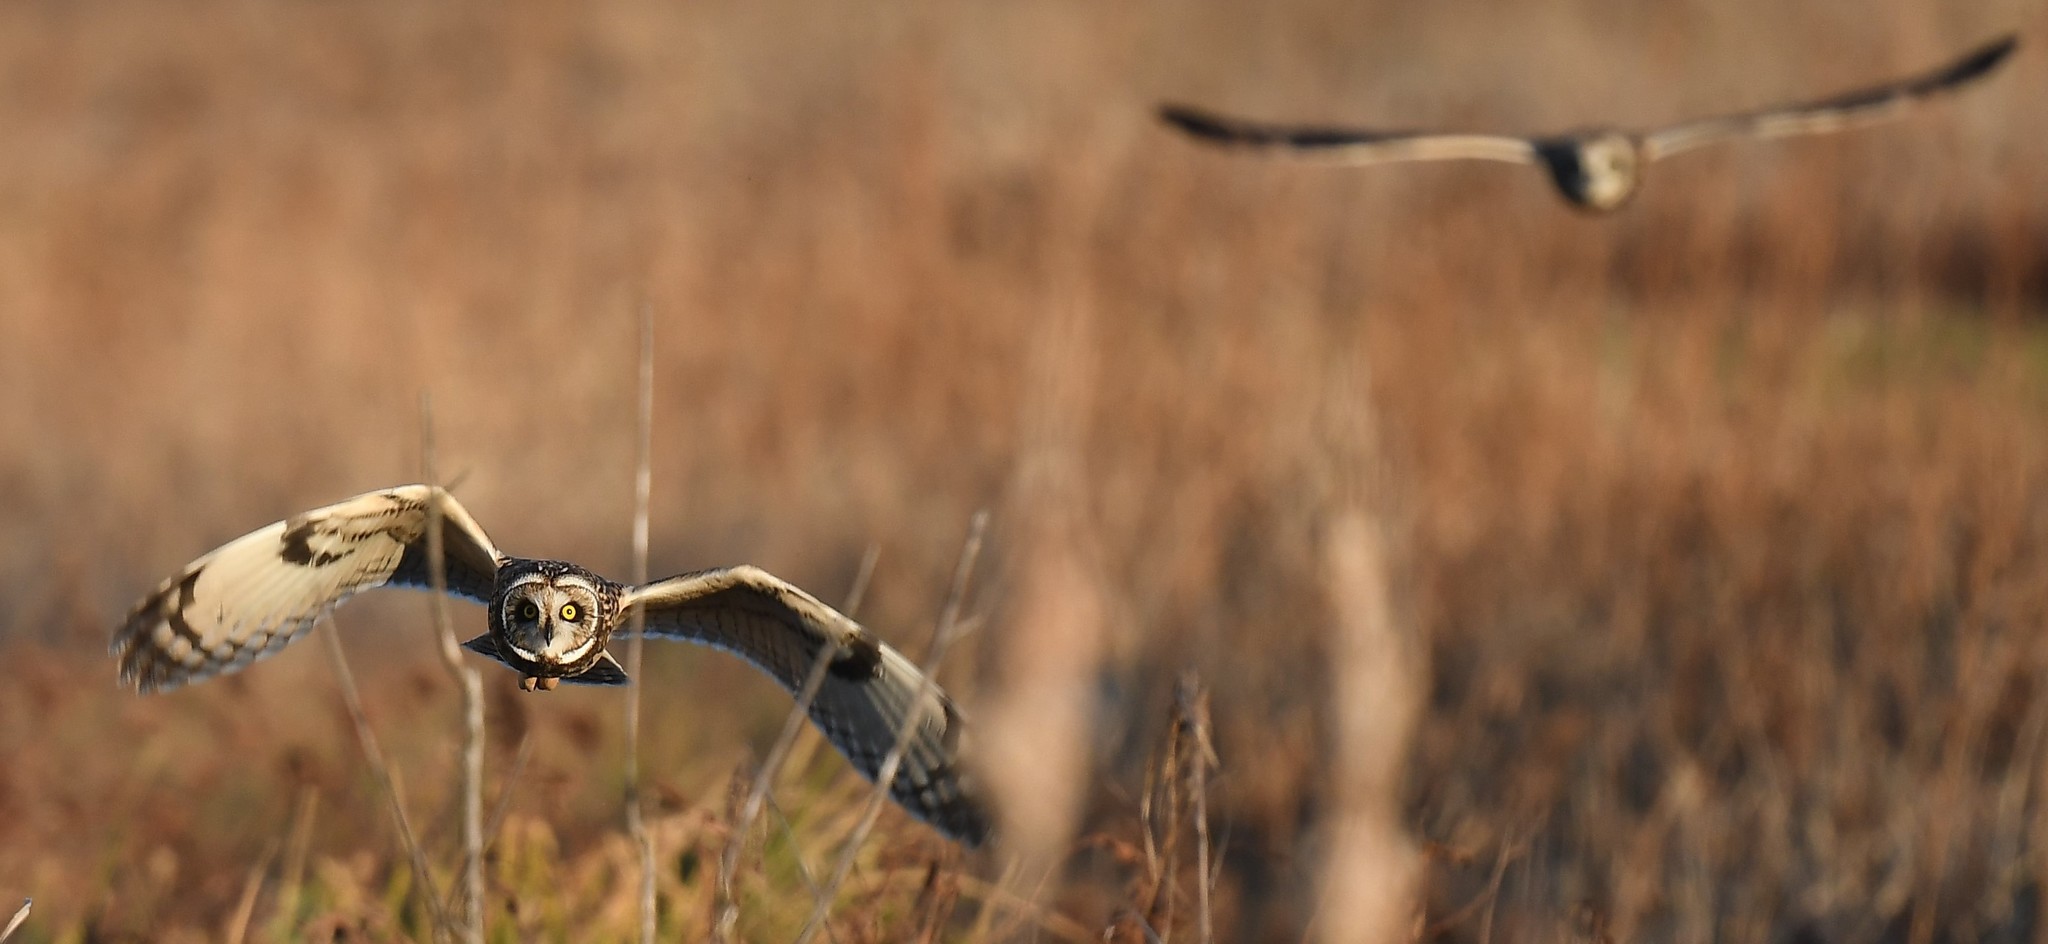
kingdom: Animalia
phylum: Chordata
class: Aves
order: Strigiformes
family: Strigidae
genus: Asio
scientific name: Asio flammeus
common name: Short-eared owl
